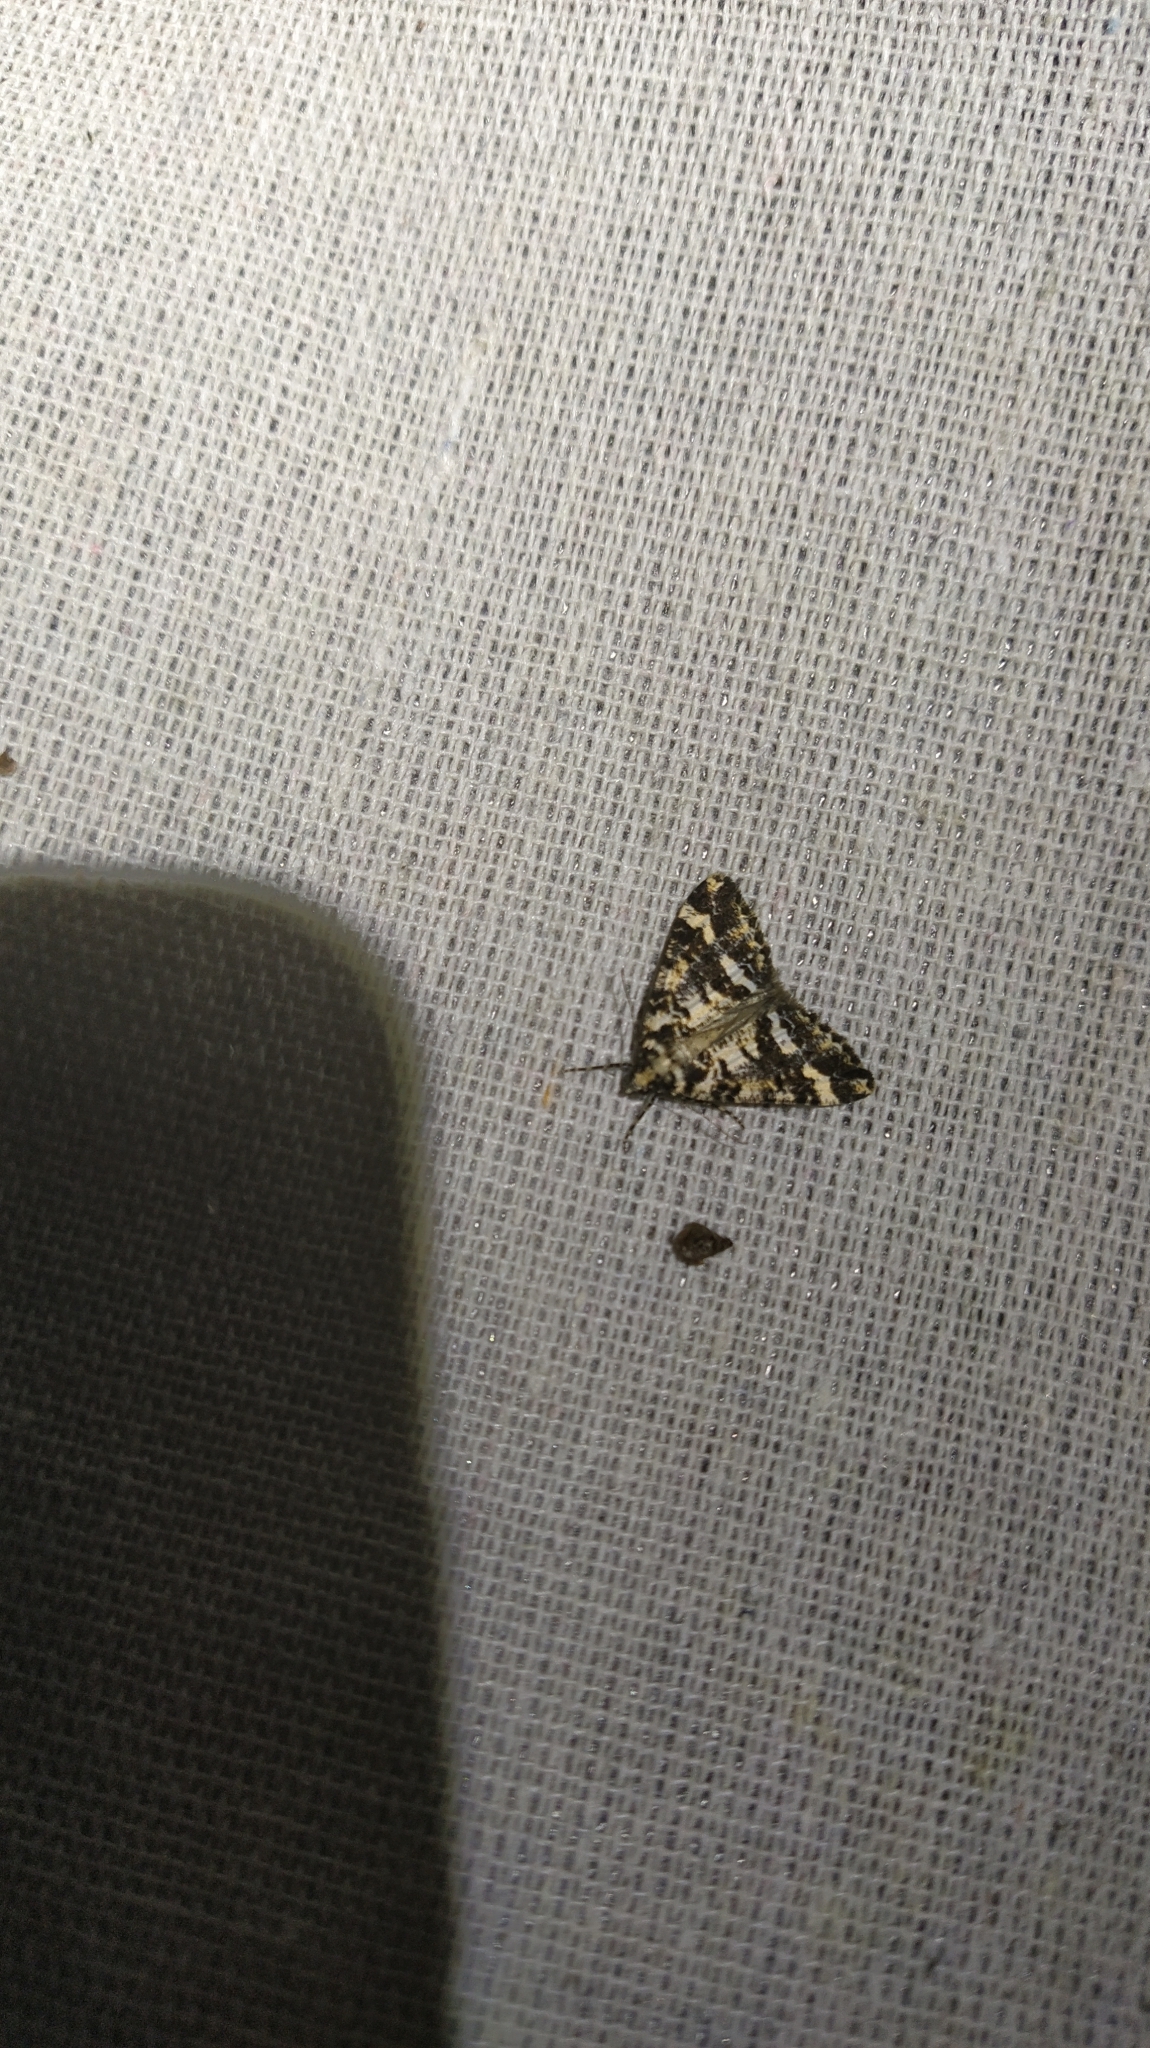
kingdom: Animalia
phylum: Arthropoda
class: Insecta
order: Lepidoptera
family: Geometridae
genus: Pseudocoremia
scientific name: Pseudocoremia leucelaea
